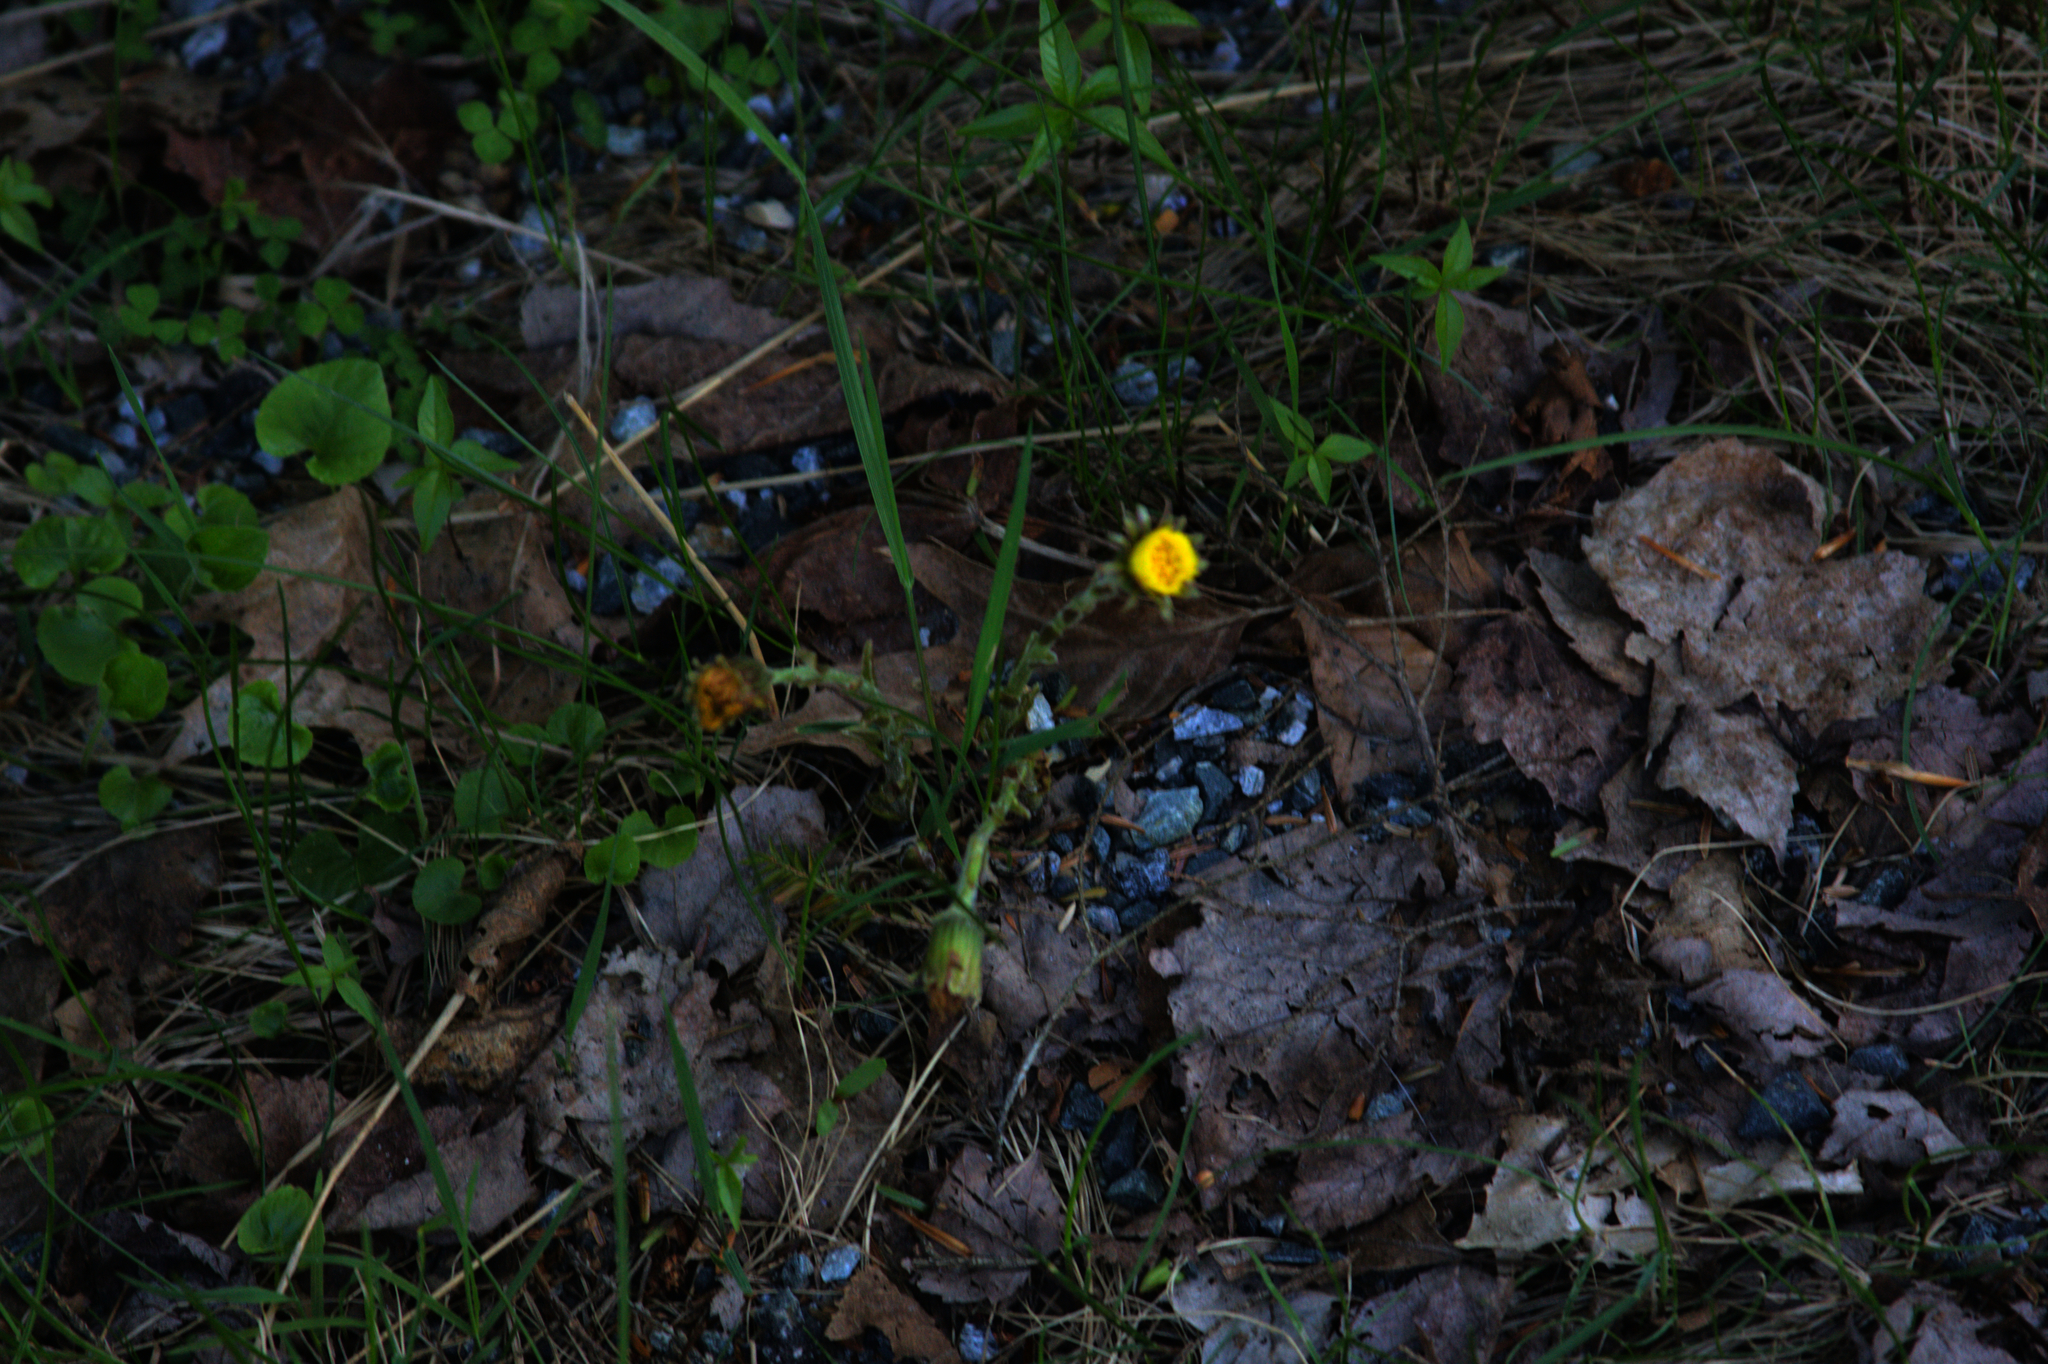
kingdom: Plantae
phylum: Tracheophyta
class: Magnoliopsida
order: Asterales
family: Asteraceae
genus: Tussilago
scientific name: Tussilago farfara
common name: Coltsfoot
